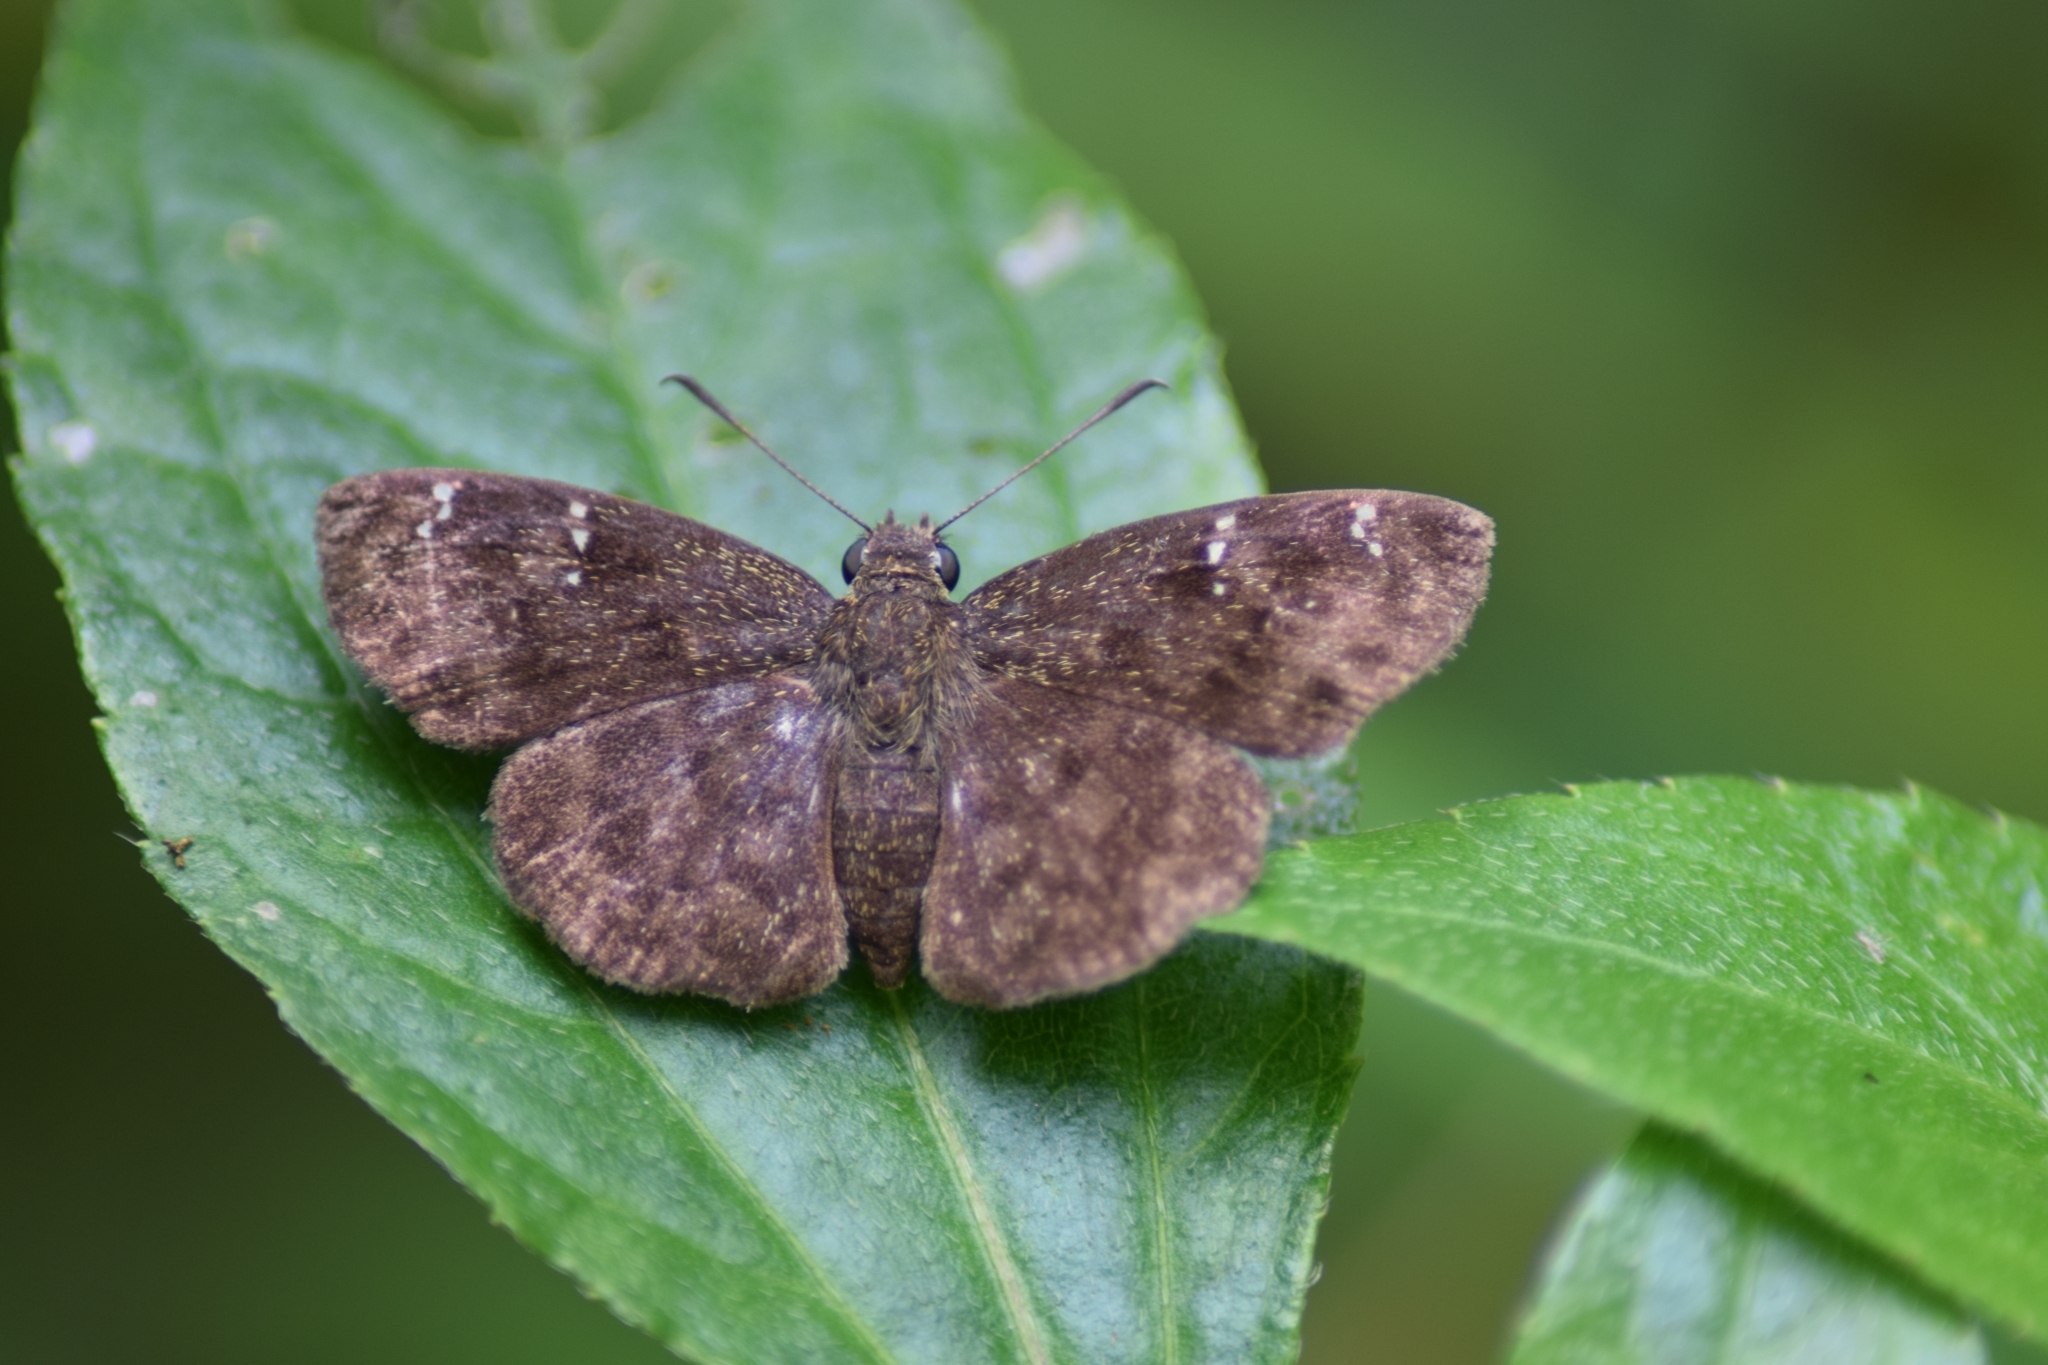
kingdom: Animalia
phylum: Arthropoda
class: Insecta
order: Lepidoptera
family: Hesperiidae
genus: Sarangesa
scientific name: Sarangesa dasahara
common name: Common small flat
